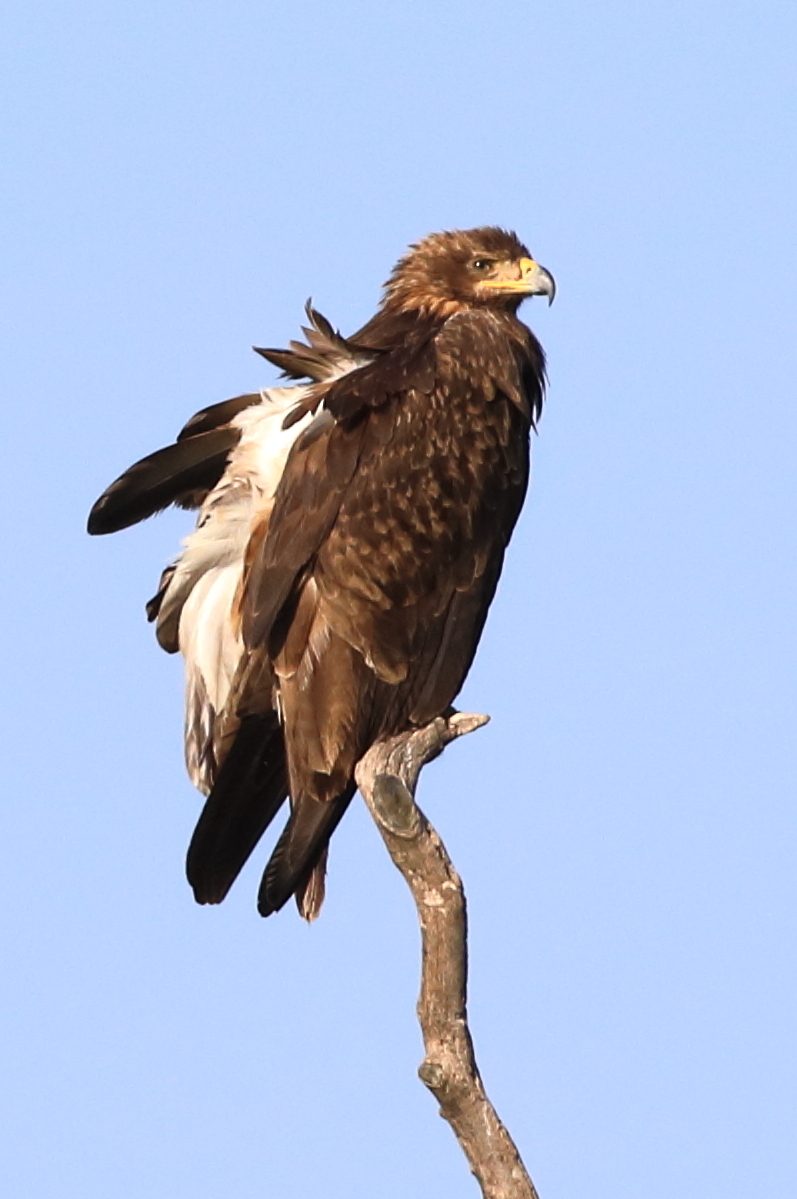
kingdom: Animalia
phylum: Chordata
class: Aves
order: Accipitriformes
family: Accipitridae
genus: Aquila
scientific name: Aquila rapax
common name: Tawny eagle
